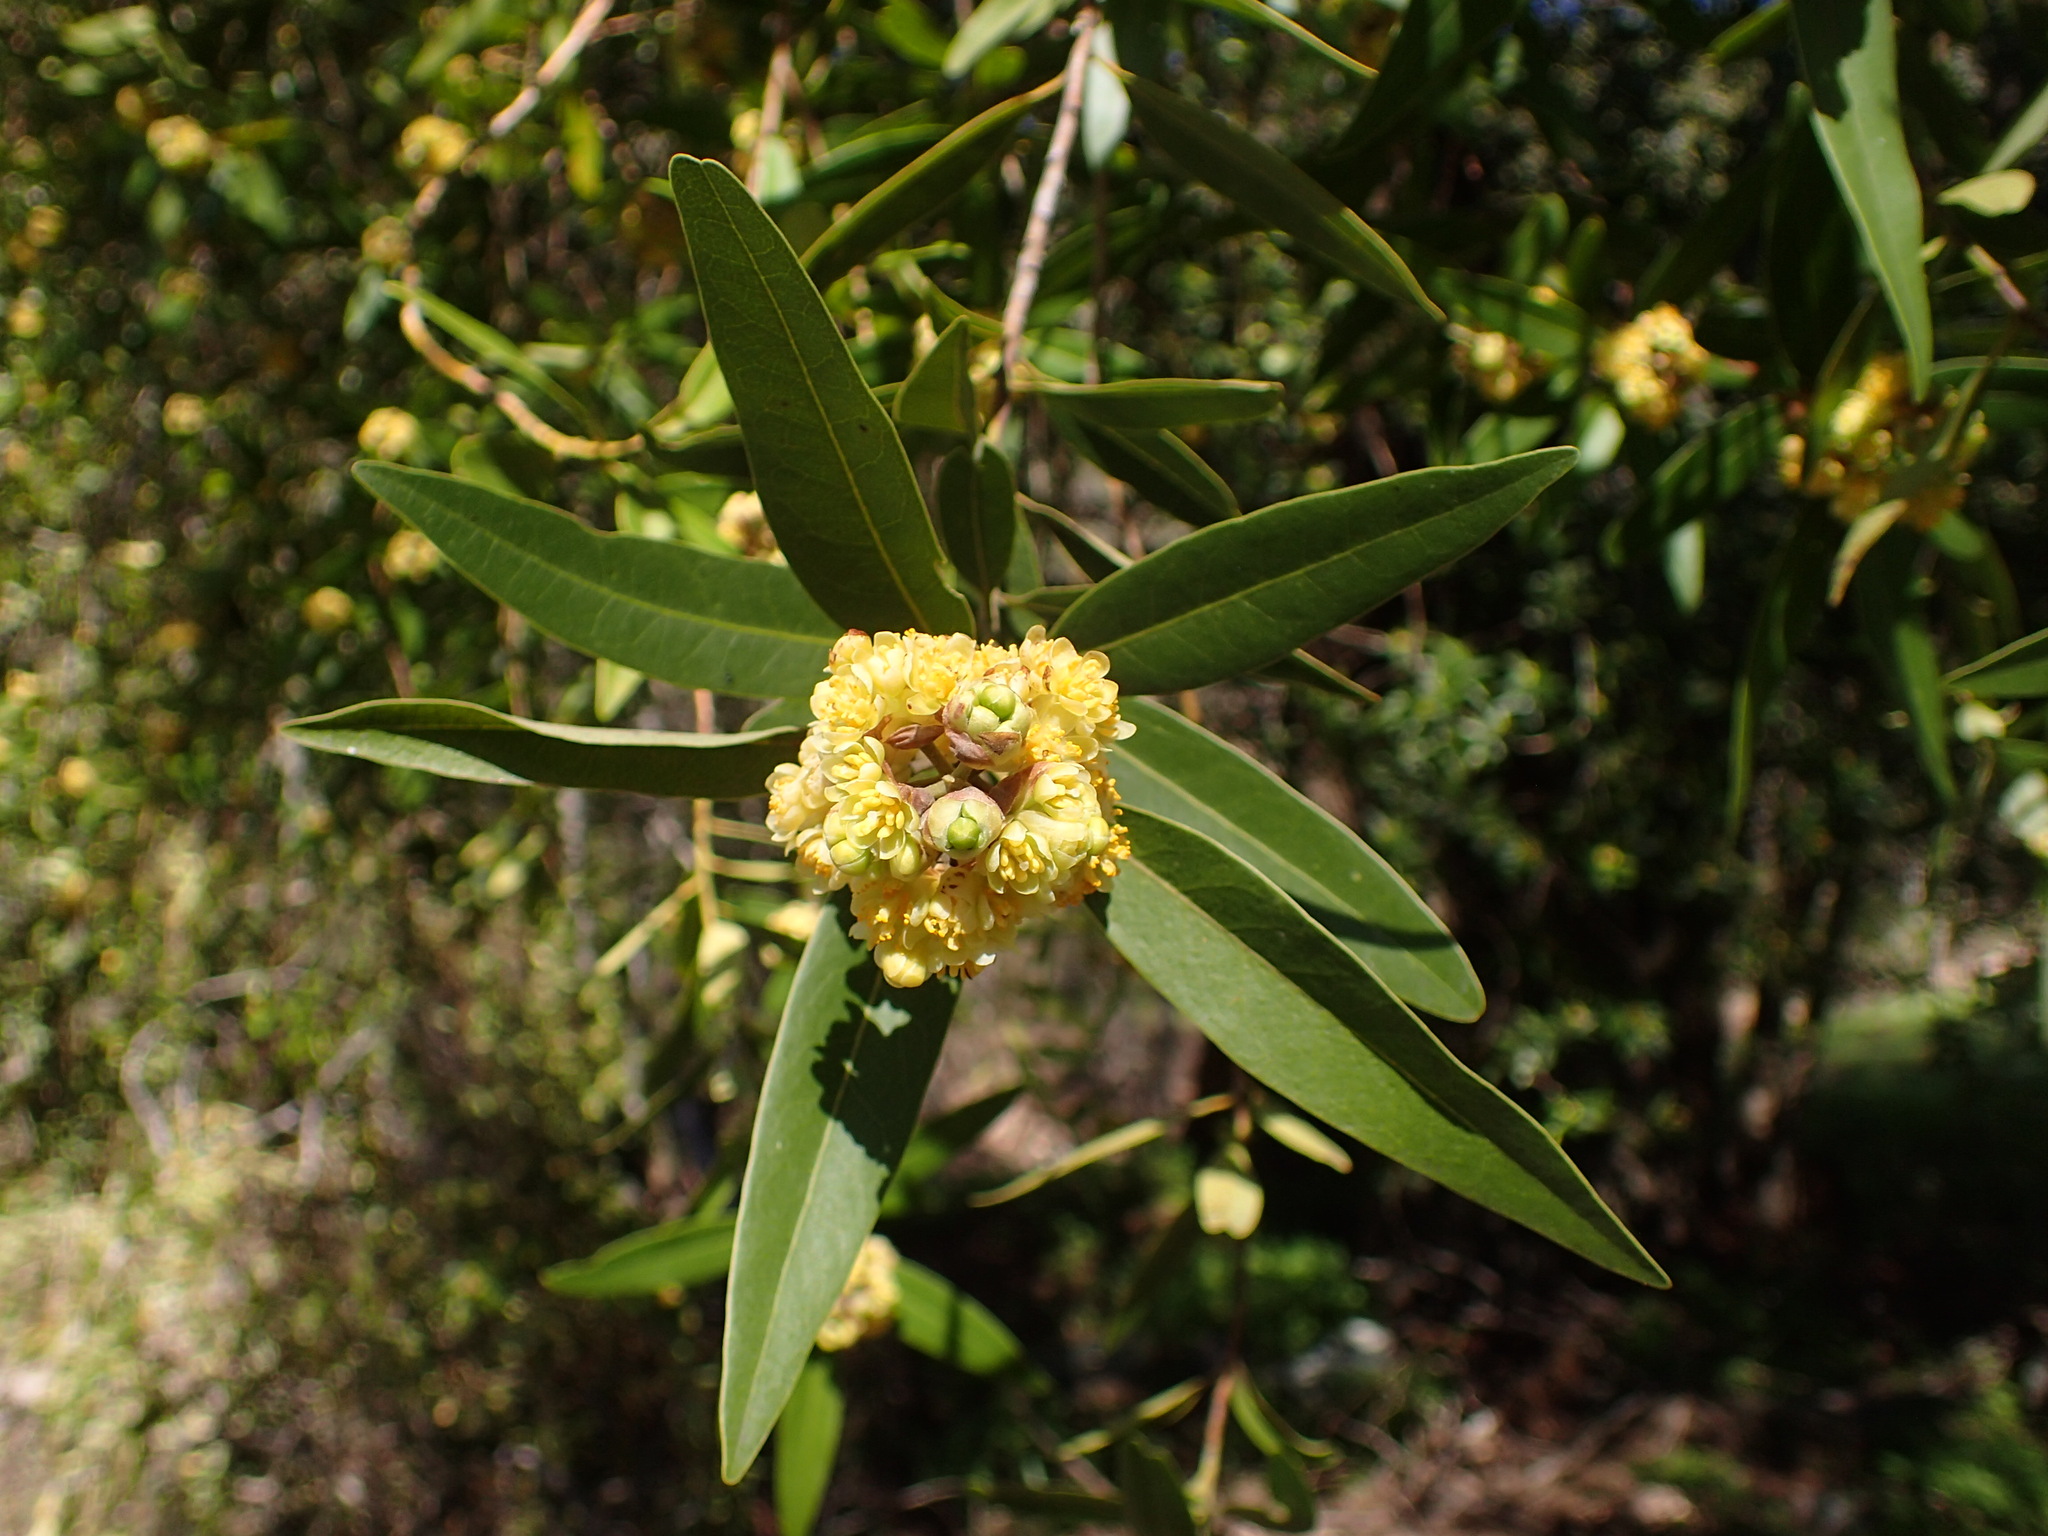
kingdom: Plantae
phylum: Tracheophyta
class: Magnoliopsida
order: Laurales
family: Lauraceae
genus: Umbellularia
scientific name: Umbellularia californica
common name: California bay
